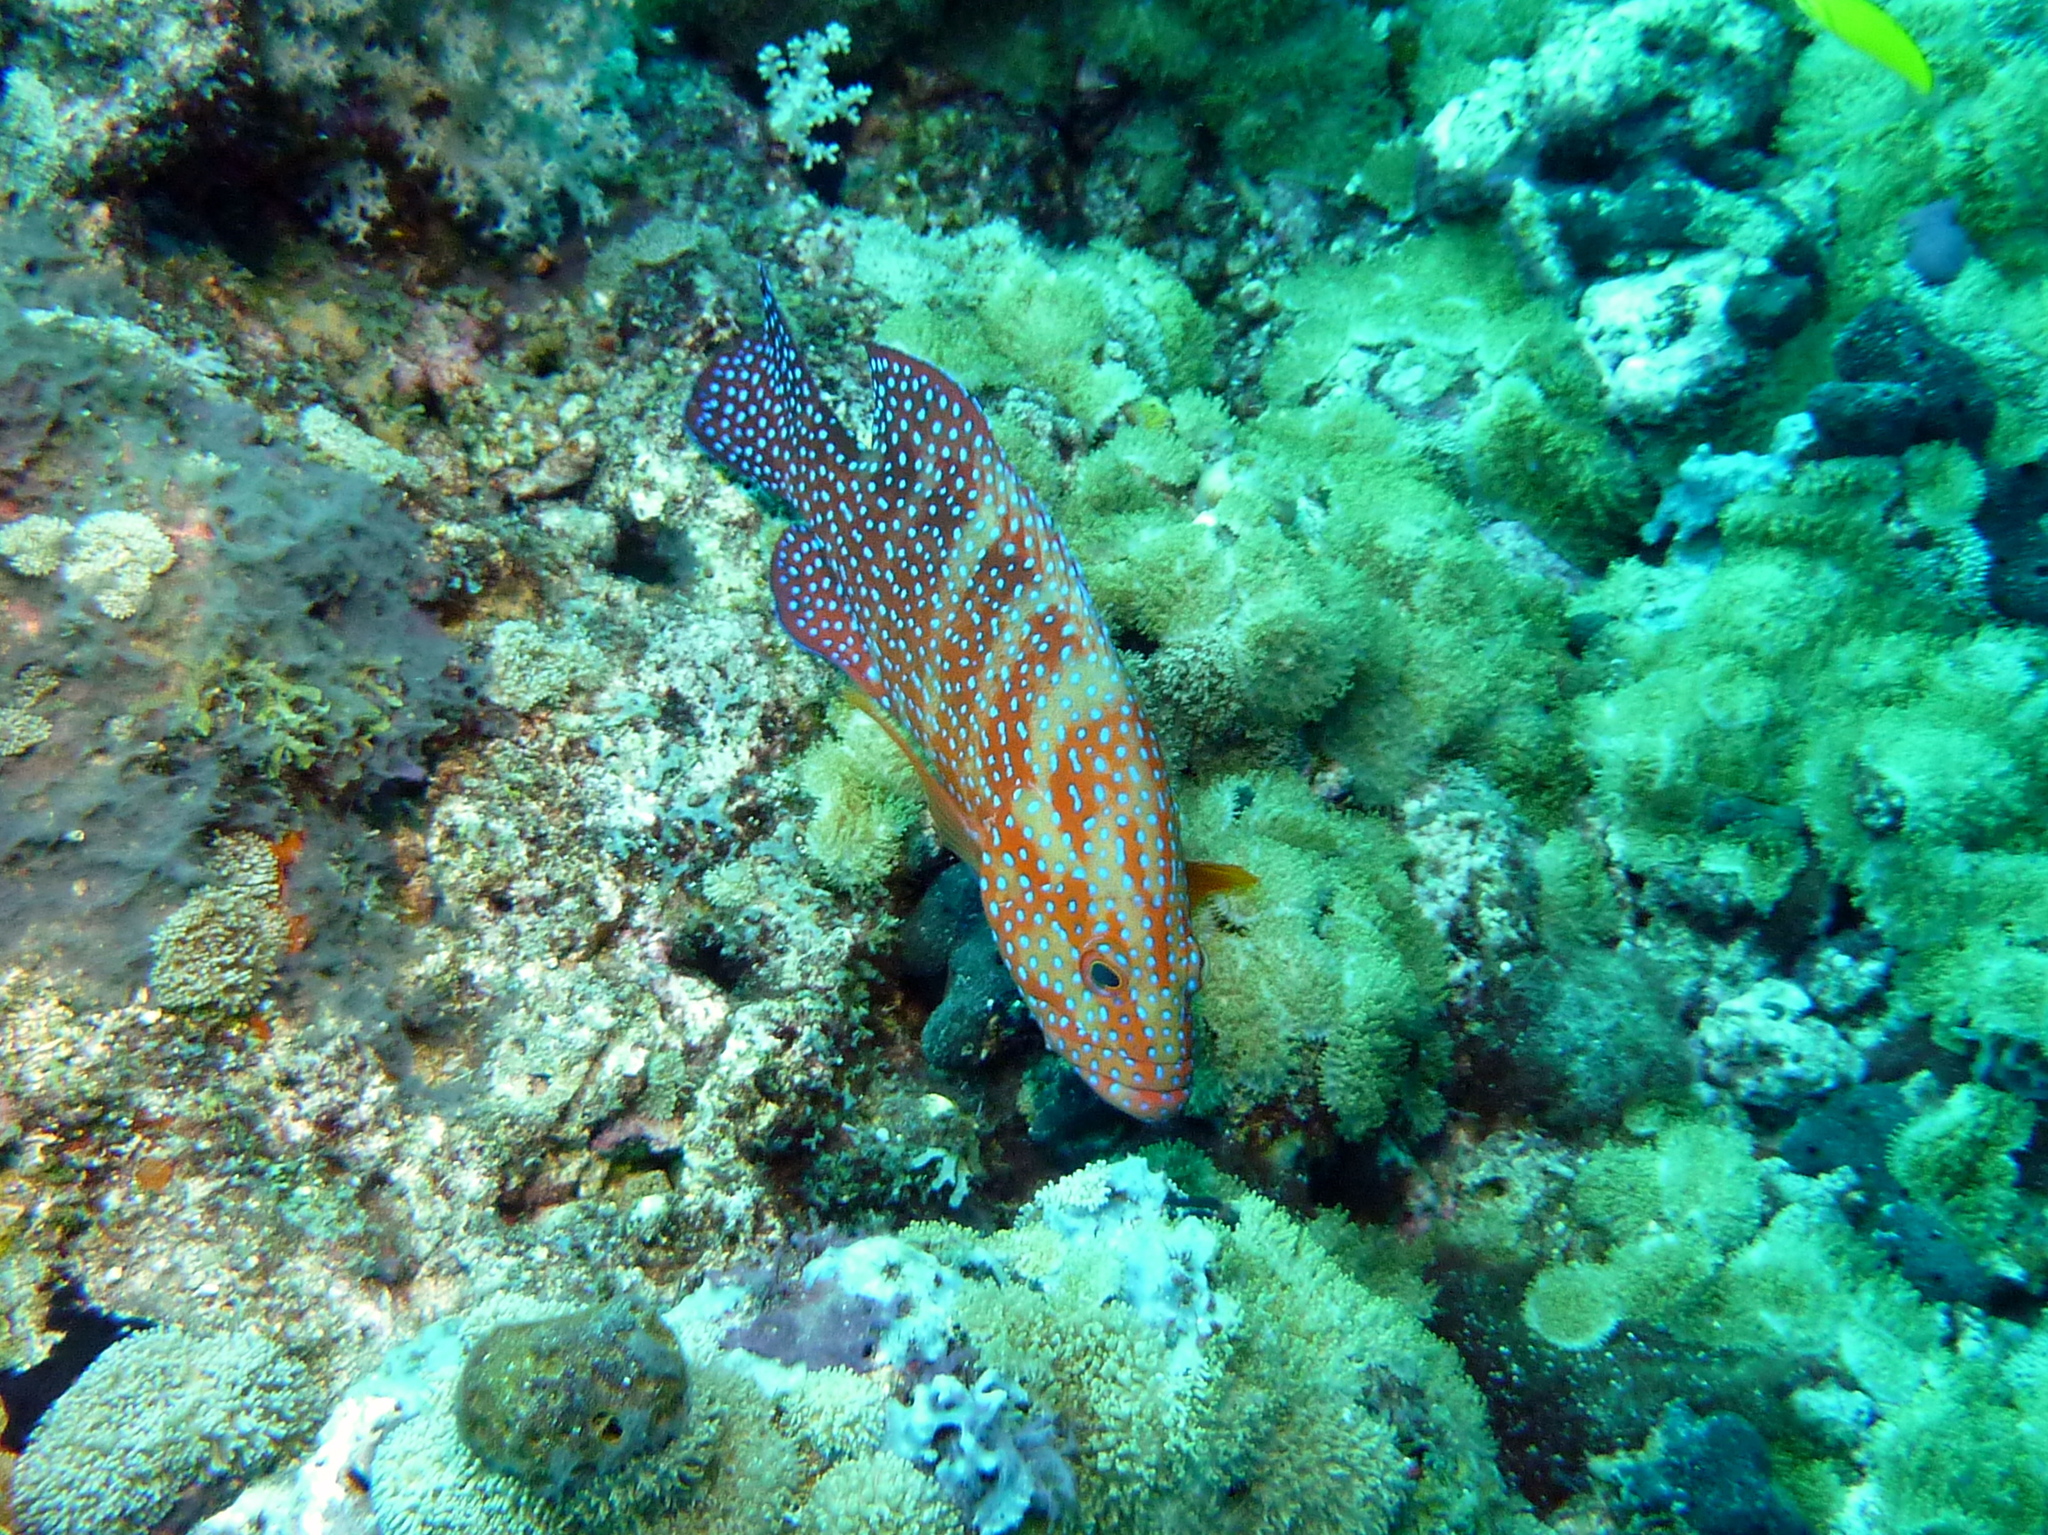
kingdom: Animalia
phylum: Chordata
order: Perciformes
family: Serranidae
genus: Cephalopholis
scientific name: Cephalopholis miniata
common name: Coral hind
